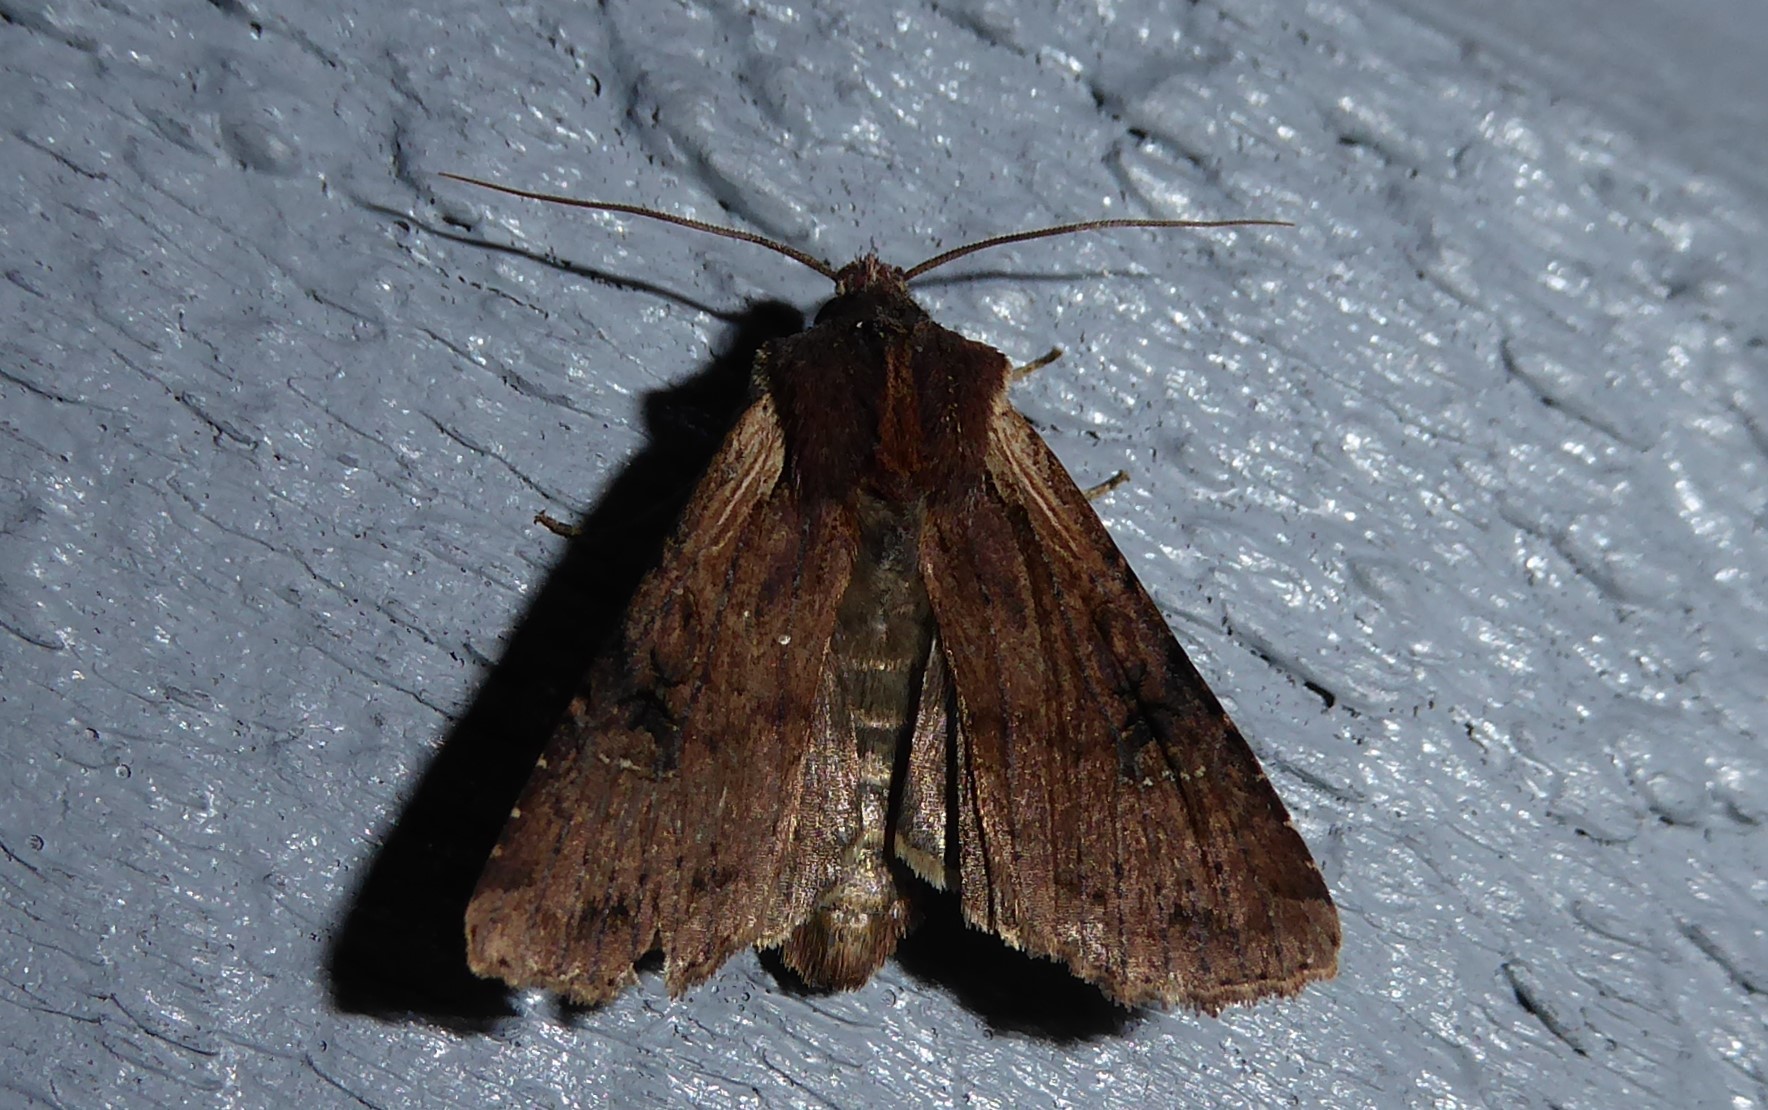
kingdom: Animalia
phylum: Arthropoda
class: Insecta
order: Lepidoptera
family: Noctuidae
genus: Ichneutica
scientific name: Ichneutica omoplaca
